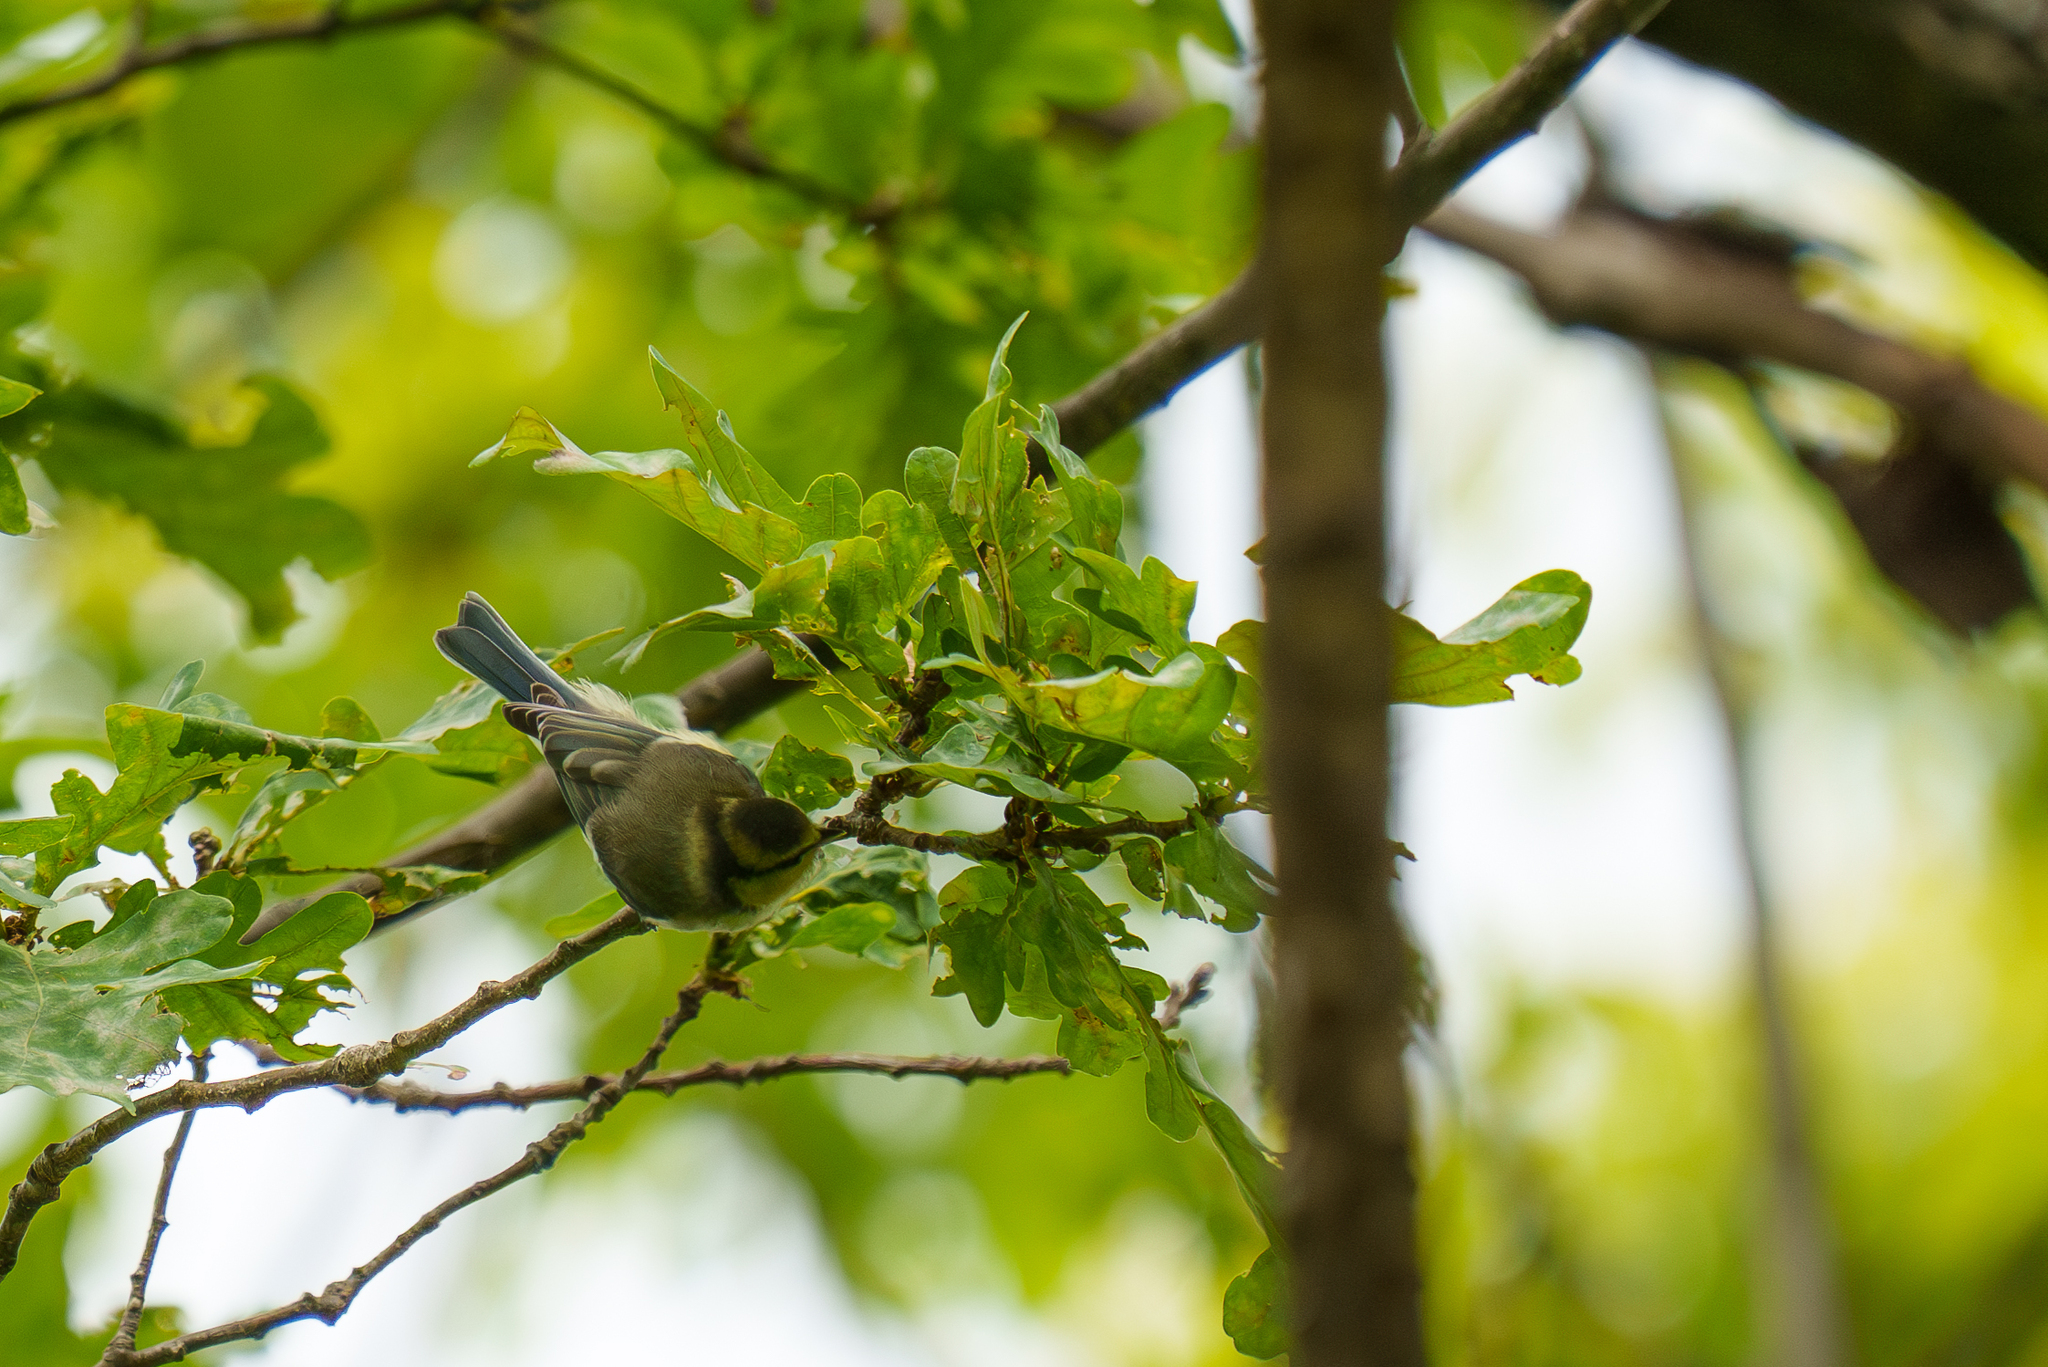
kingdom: Animalia
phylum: Chordata
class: Aves
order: Passeriformes
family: Paridae
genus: Cyanistes
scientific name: Cyanistes caeruleus
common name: Eurasian blue tit
